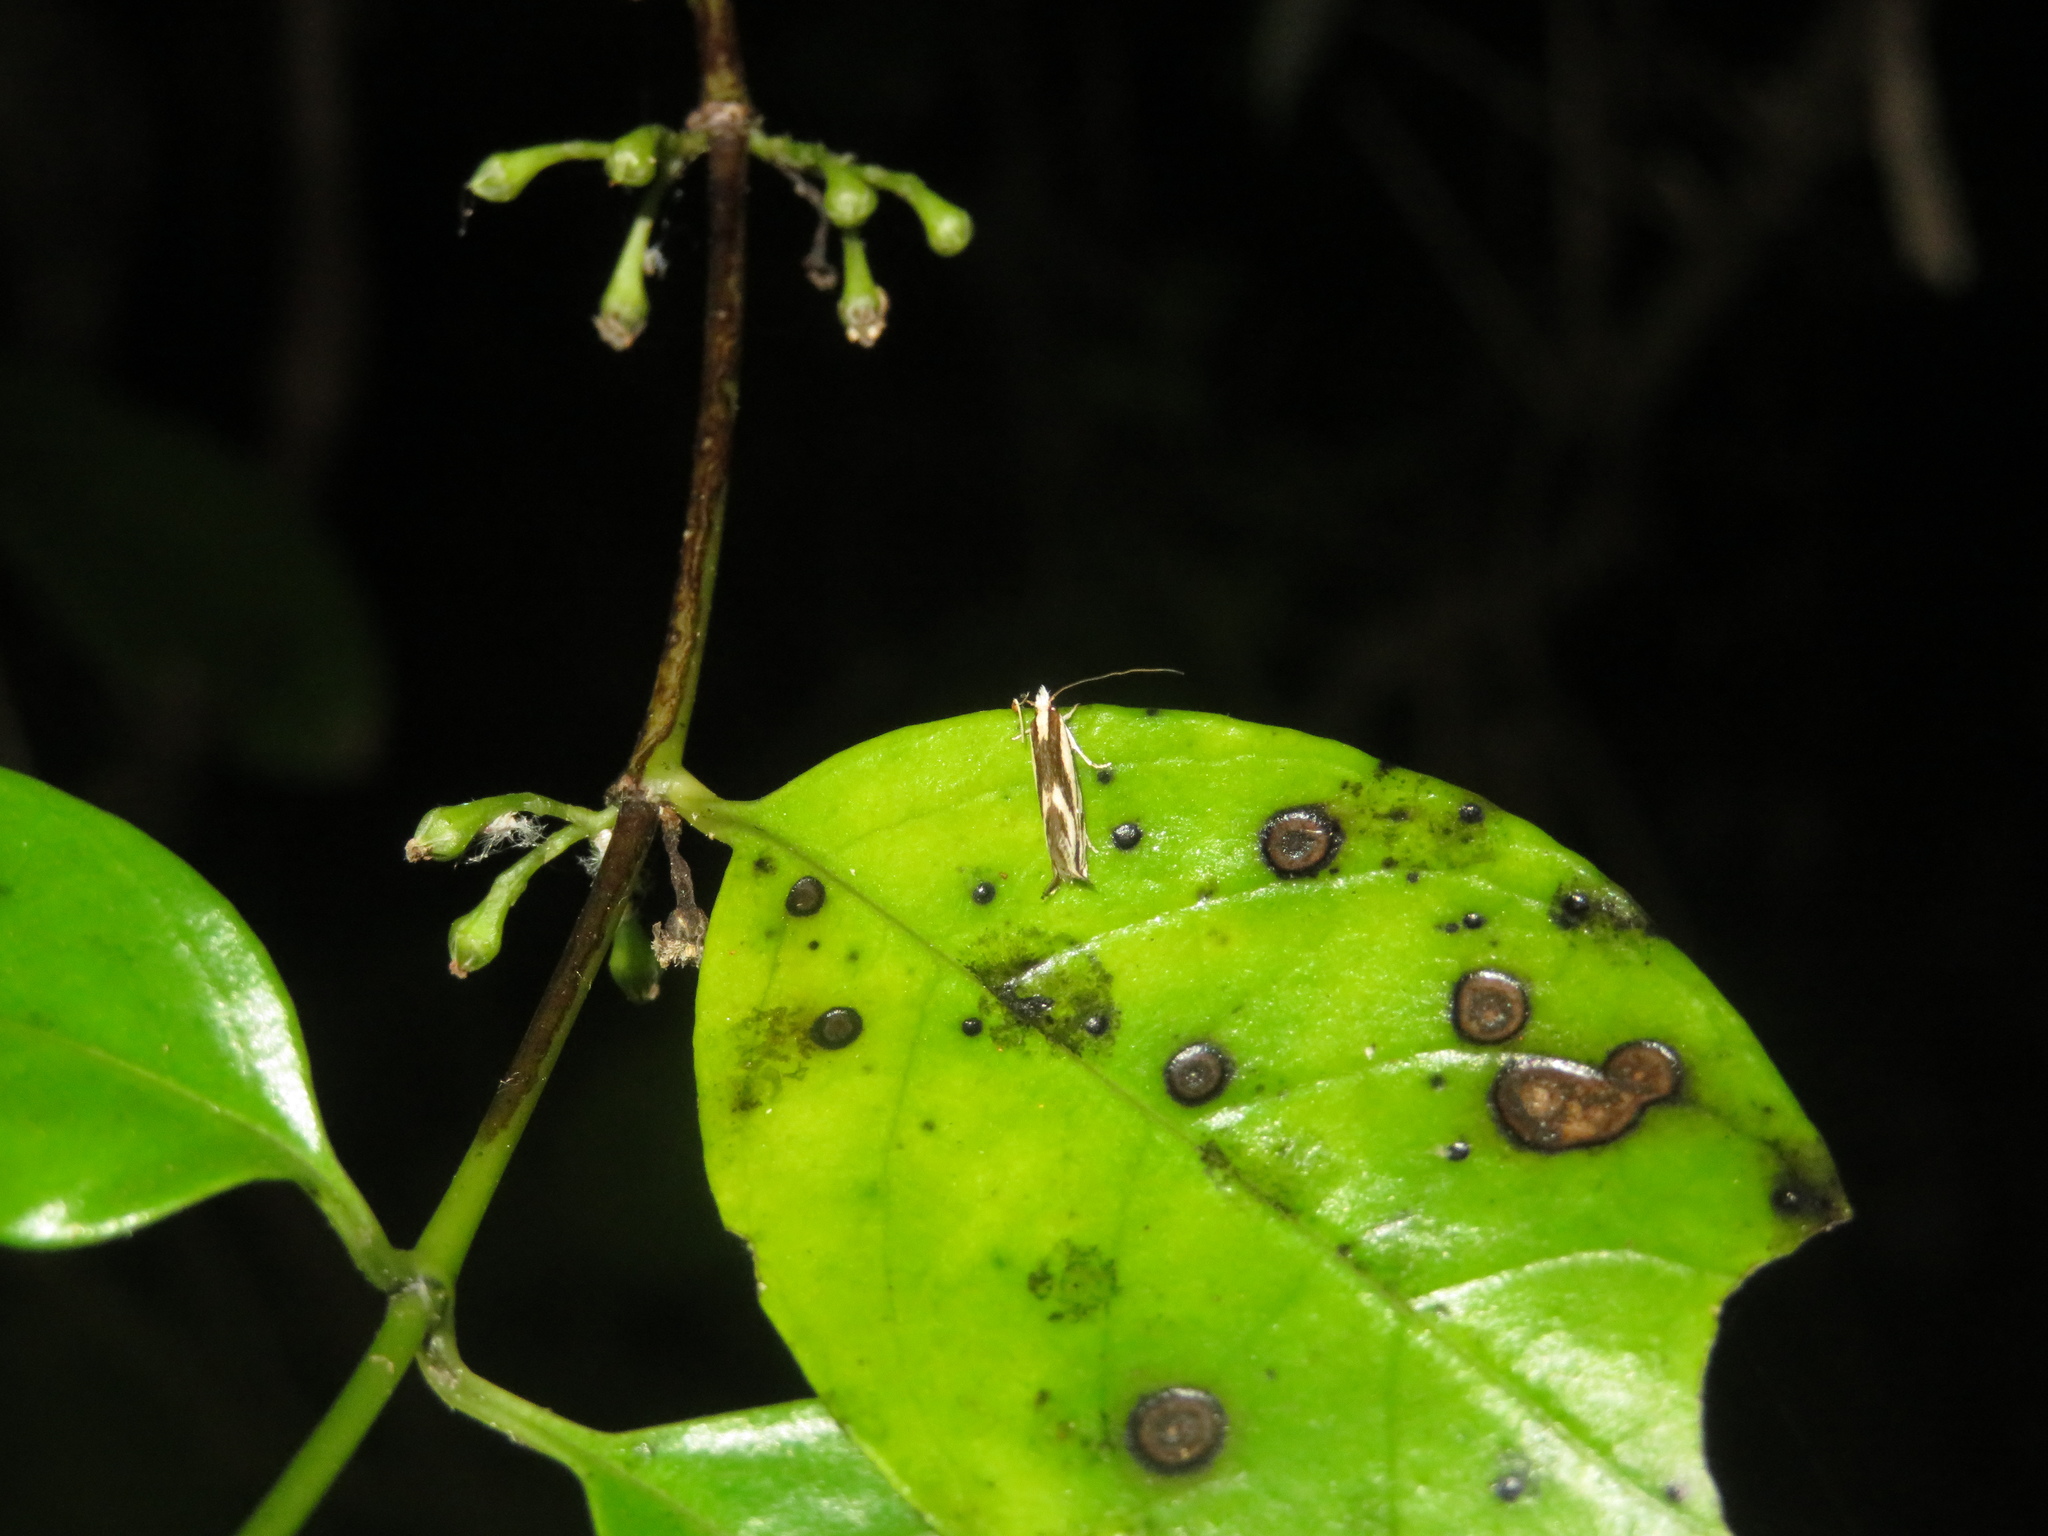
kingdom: Animalia
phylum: Arthropoda
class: Insecta
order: Lepidoptera
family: Tineidae
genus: Erechthias
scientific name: Erechthias chasmatias
